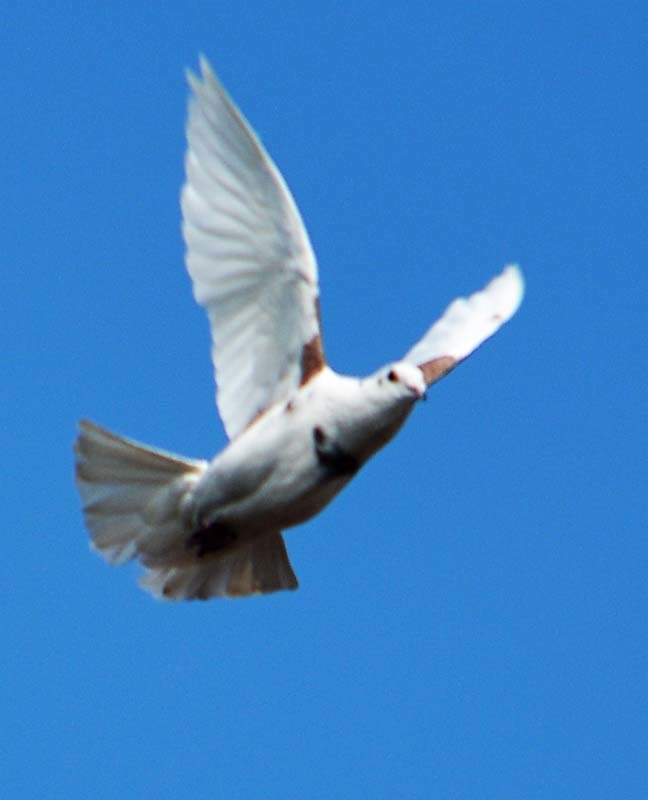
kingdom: Animalia
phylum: Chordata
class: Aves
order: Columbiformes
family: Columbidae
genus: Columba
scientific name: Columba livia
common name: Rock pigeon
